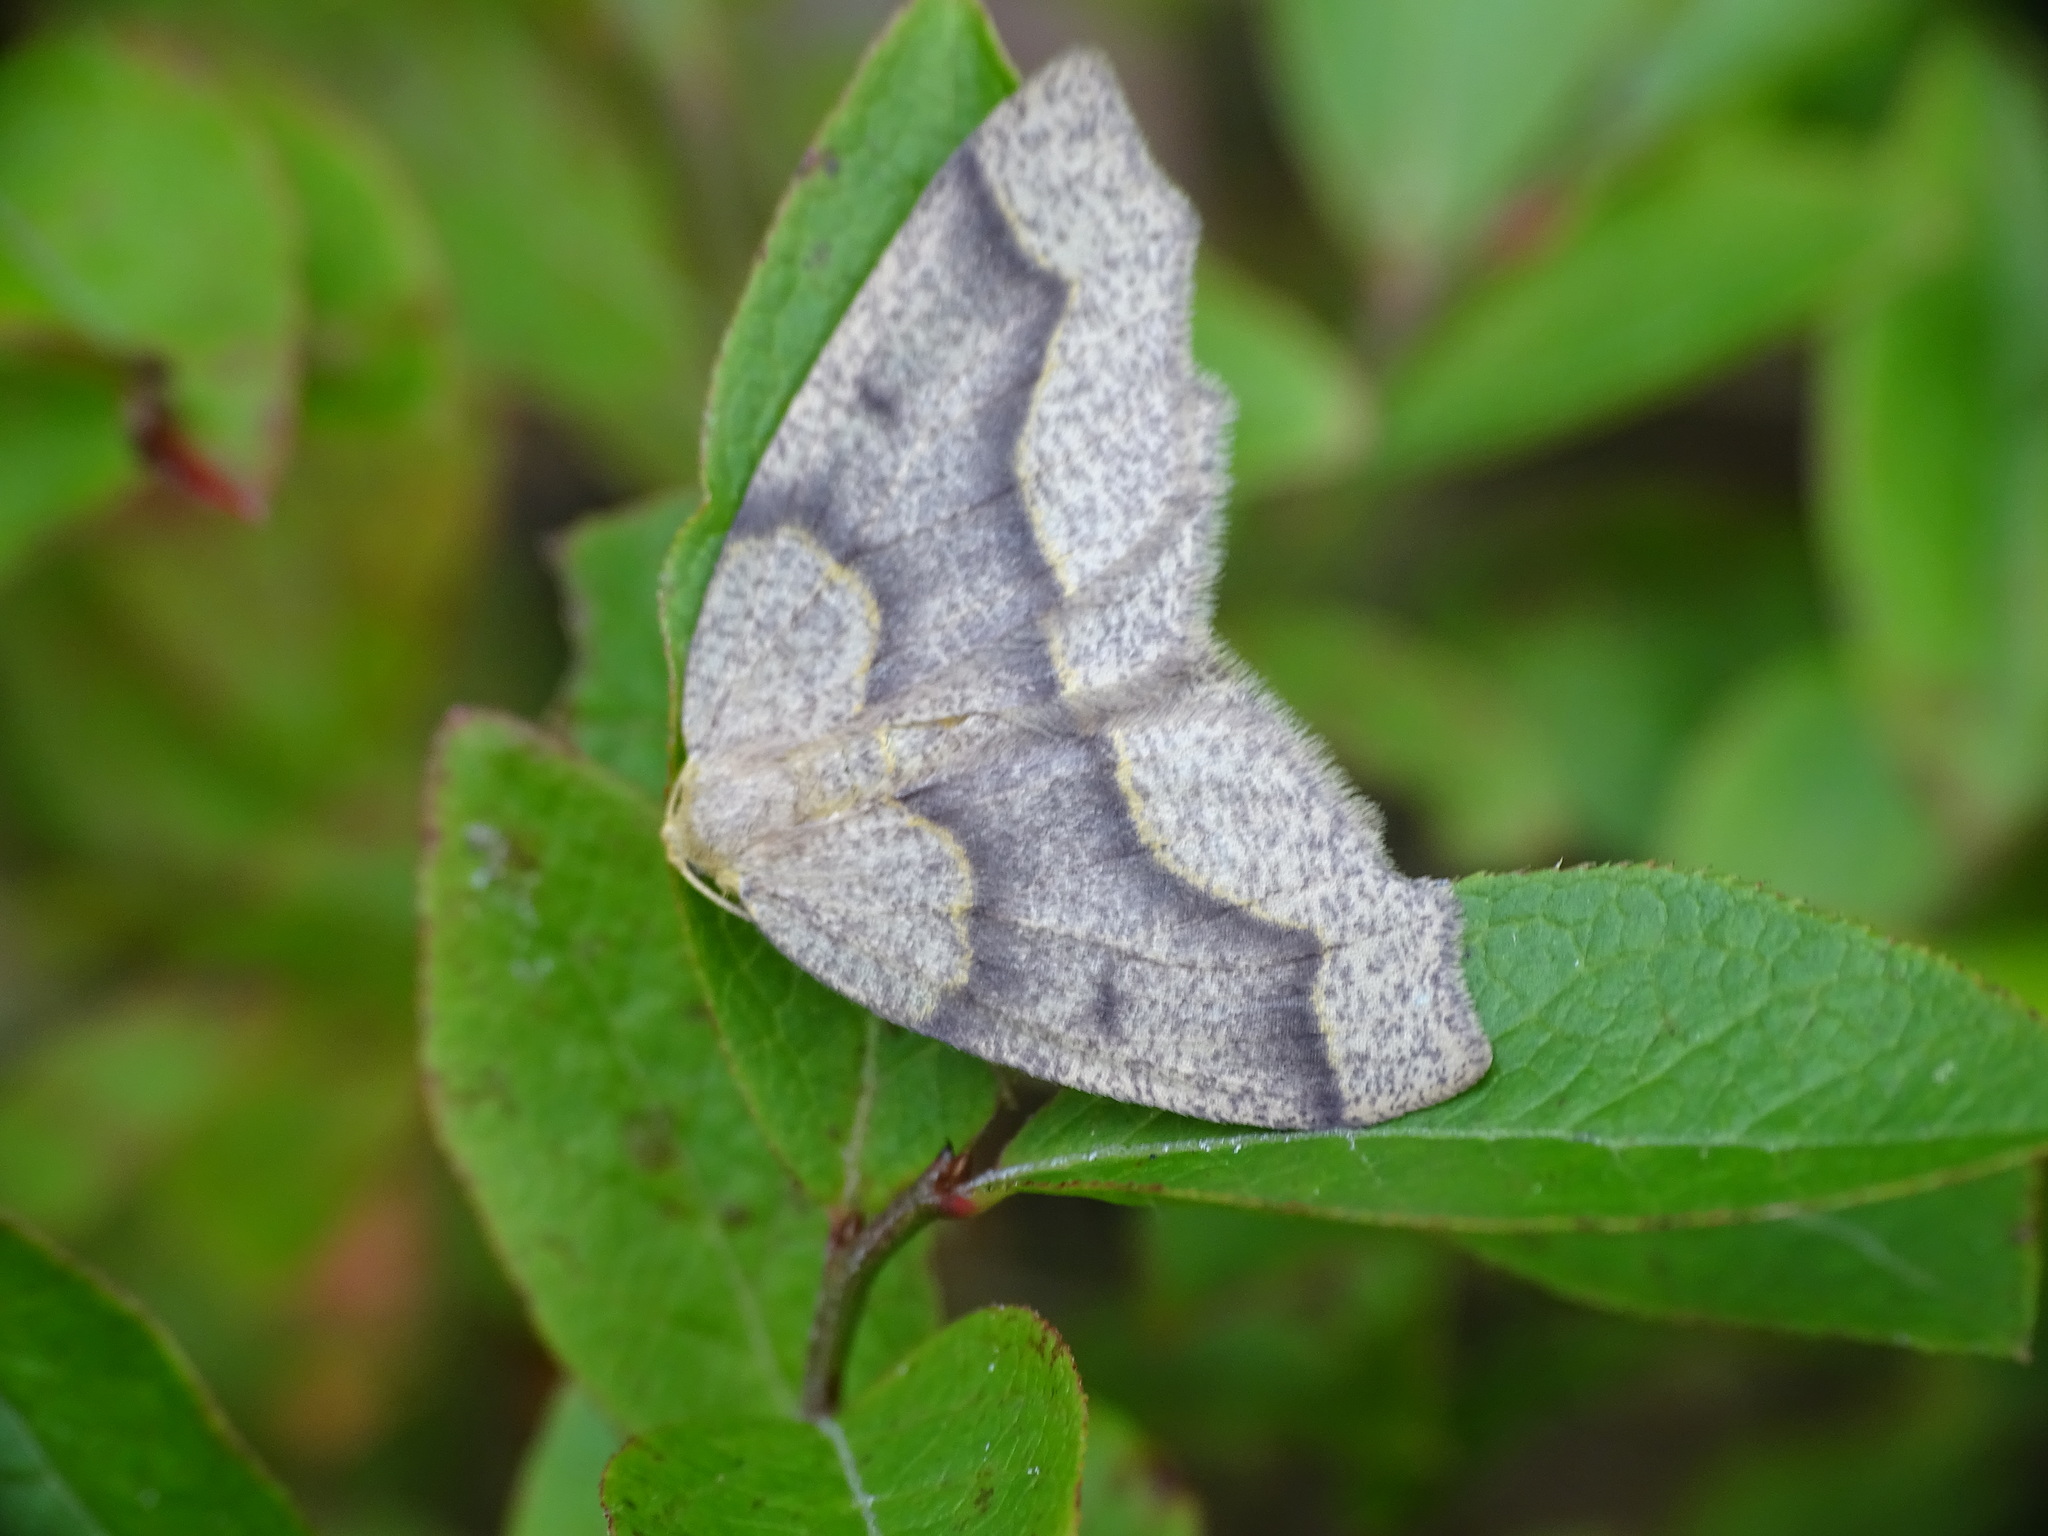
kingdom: Animalia
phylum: Arthropoda
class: Insecta
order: Lepidoptera
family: Geometridae
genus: Lambdina
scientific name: Lambdina fiscellaria
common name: Hemlock looper
